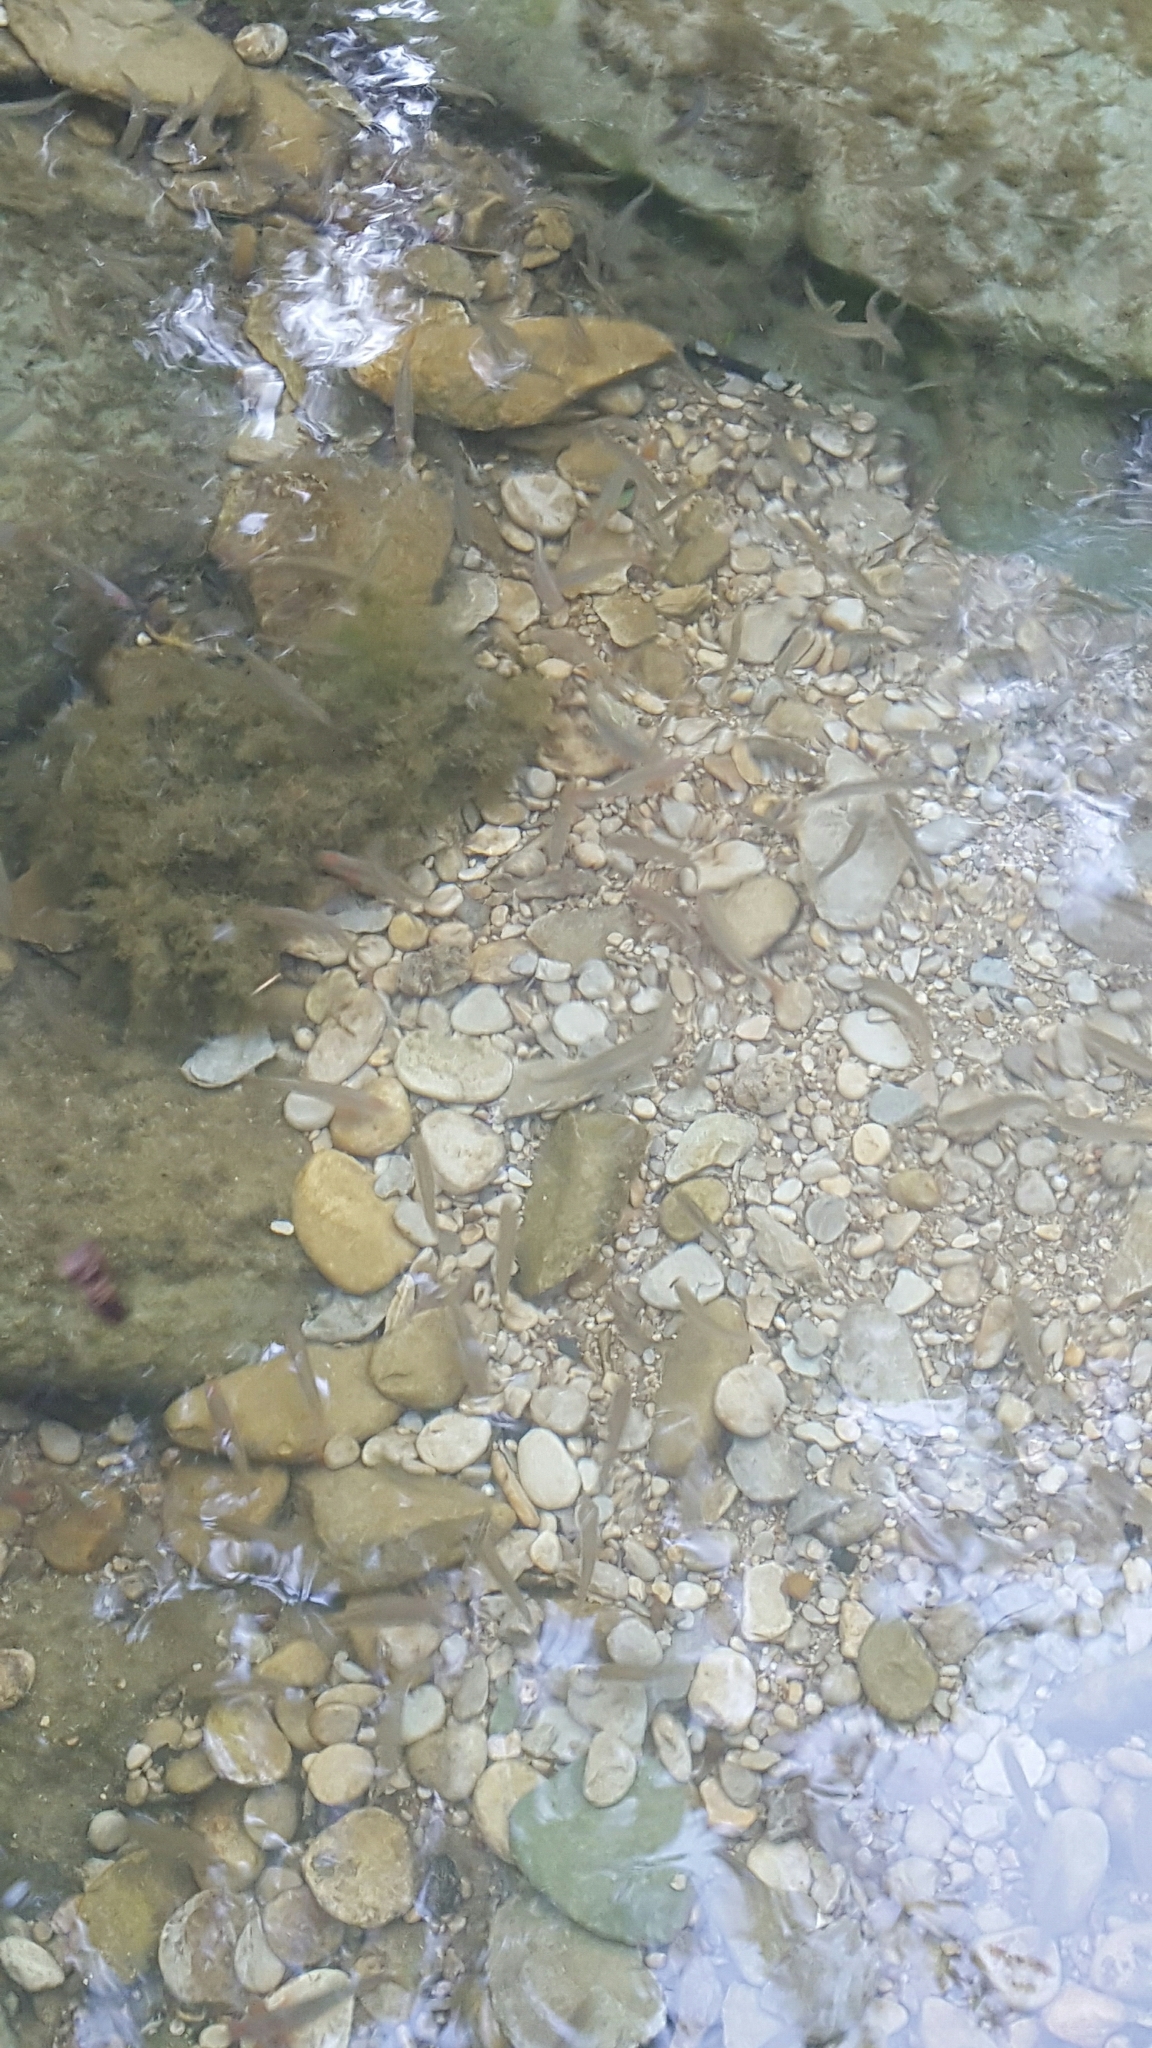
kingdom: Animalia
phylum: Chordata
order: Cypriniformes
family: Cyprinidae
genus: Cyprinella
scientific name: Cyprinella lutrensis
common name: Red shiner
